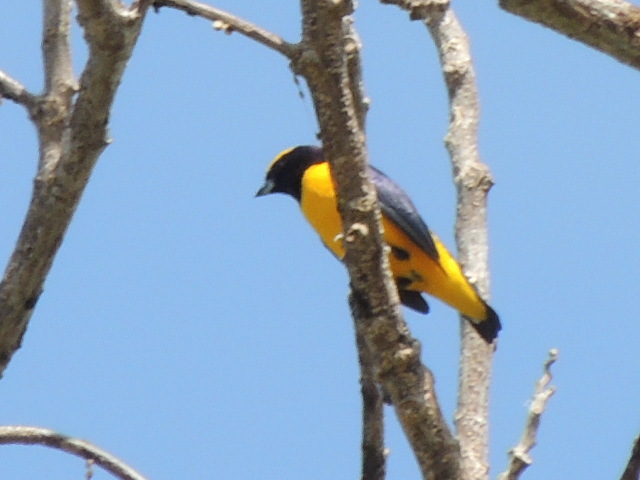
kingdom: Animalia
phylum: Chordata
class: Aves
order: Passeriformes
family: Fringillidae
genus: Euphonia
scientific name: Euphonia trinitatis
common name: Trinidad euphonia
